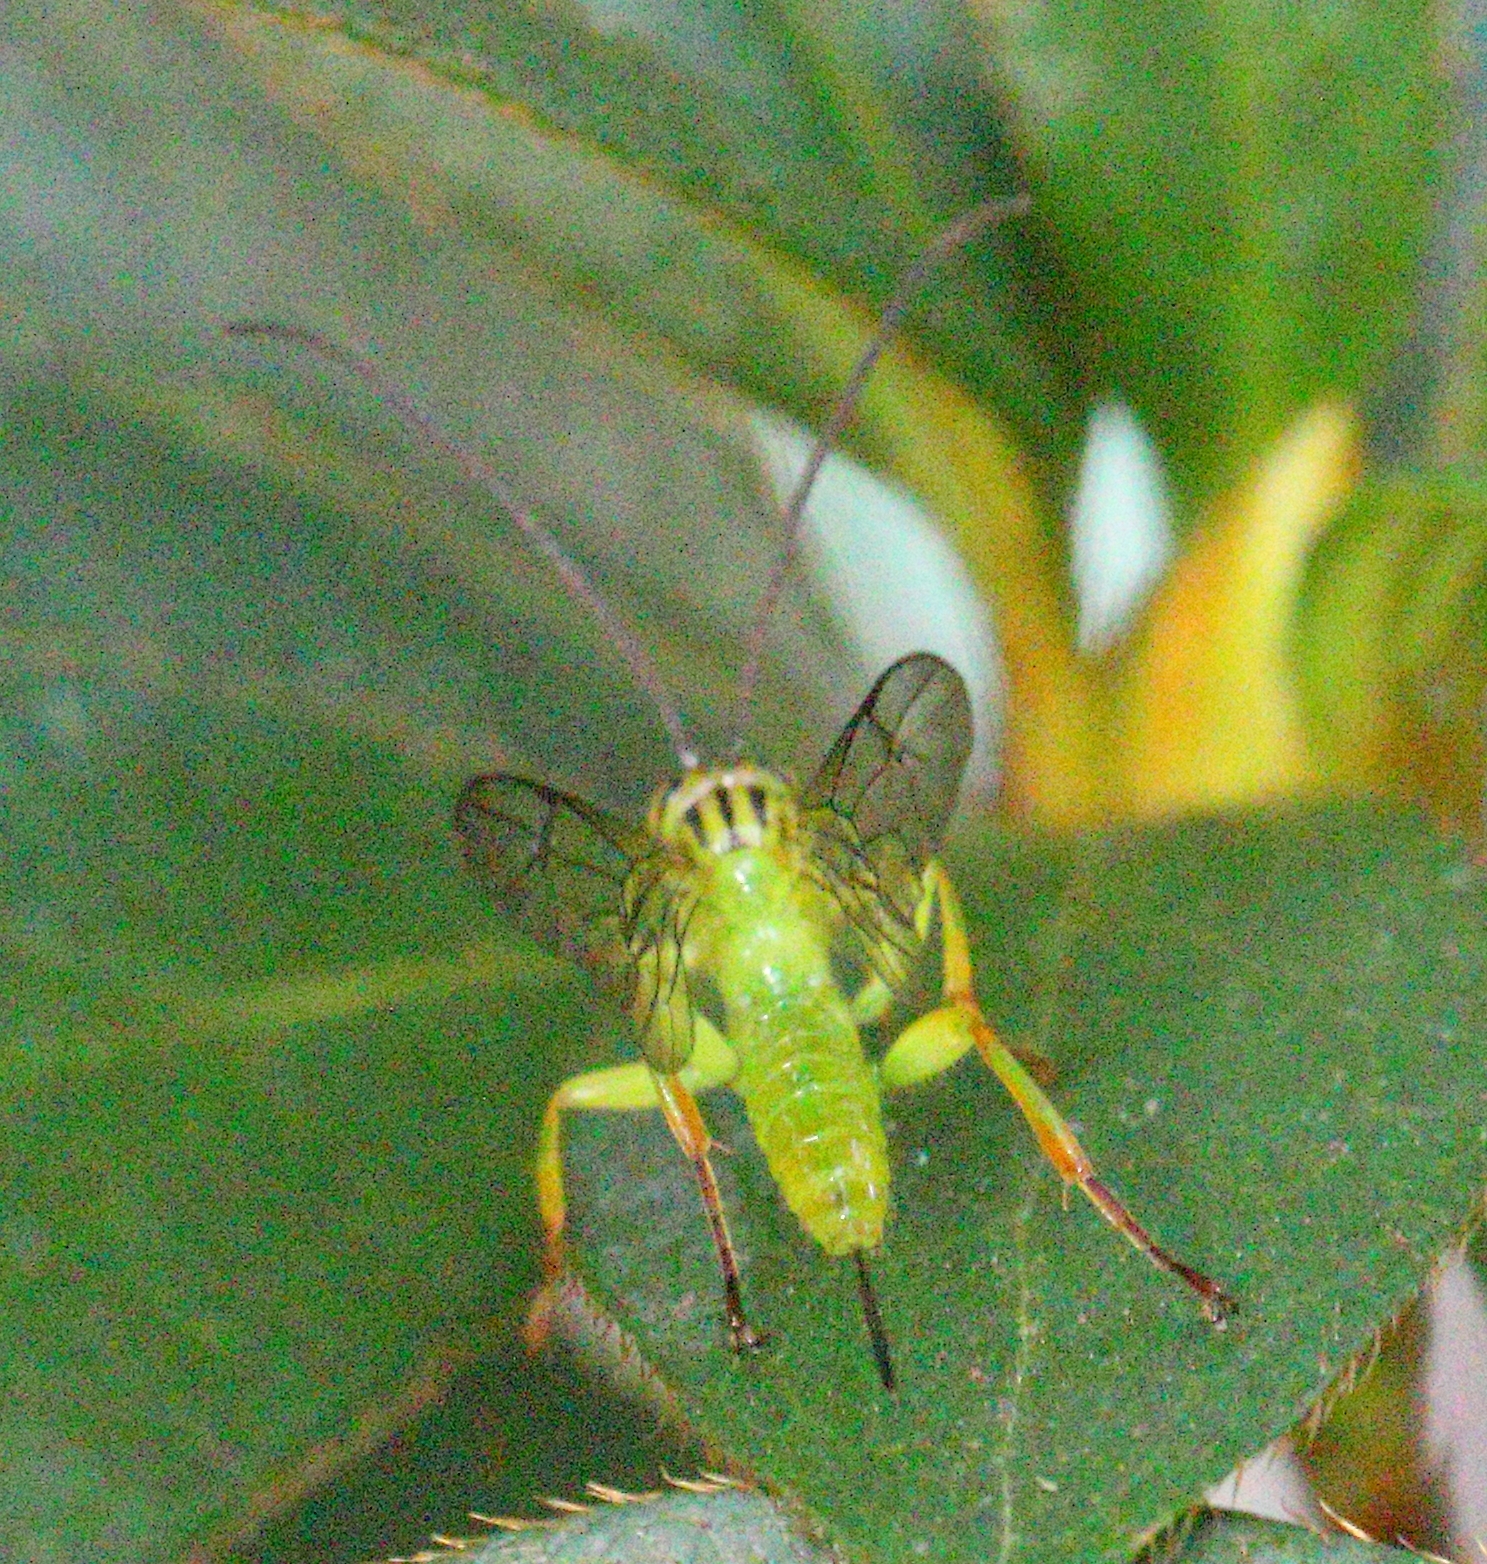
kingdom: Animalia
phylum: Arthropoda
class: Insecta
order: Hymenoptera
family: Ichneumonidae
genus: Theronia
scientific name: Theronia lurida
